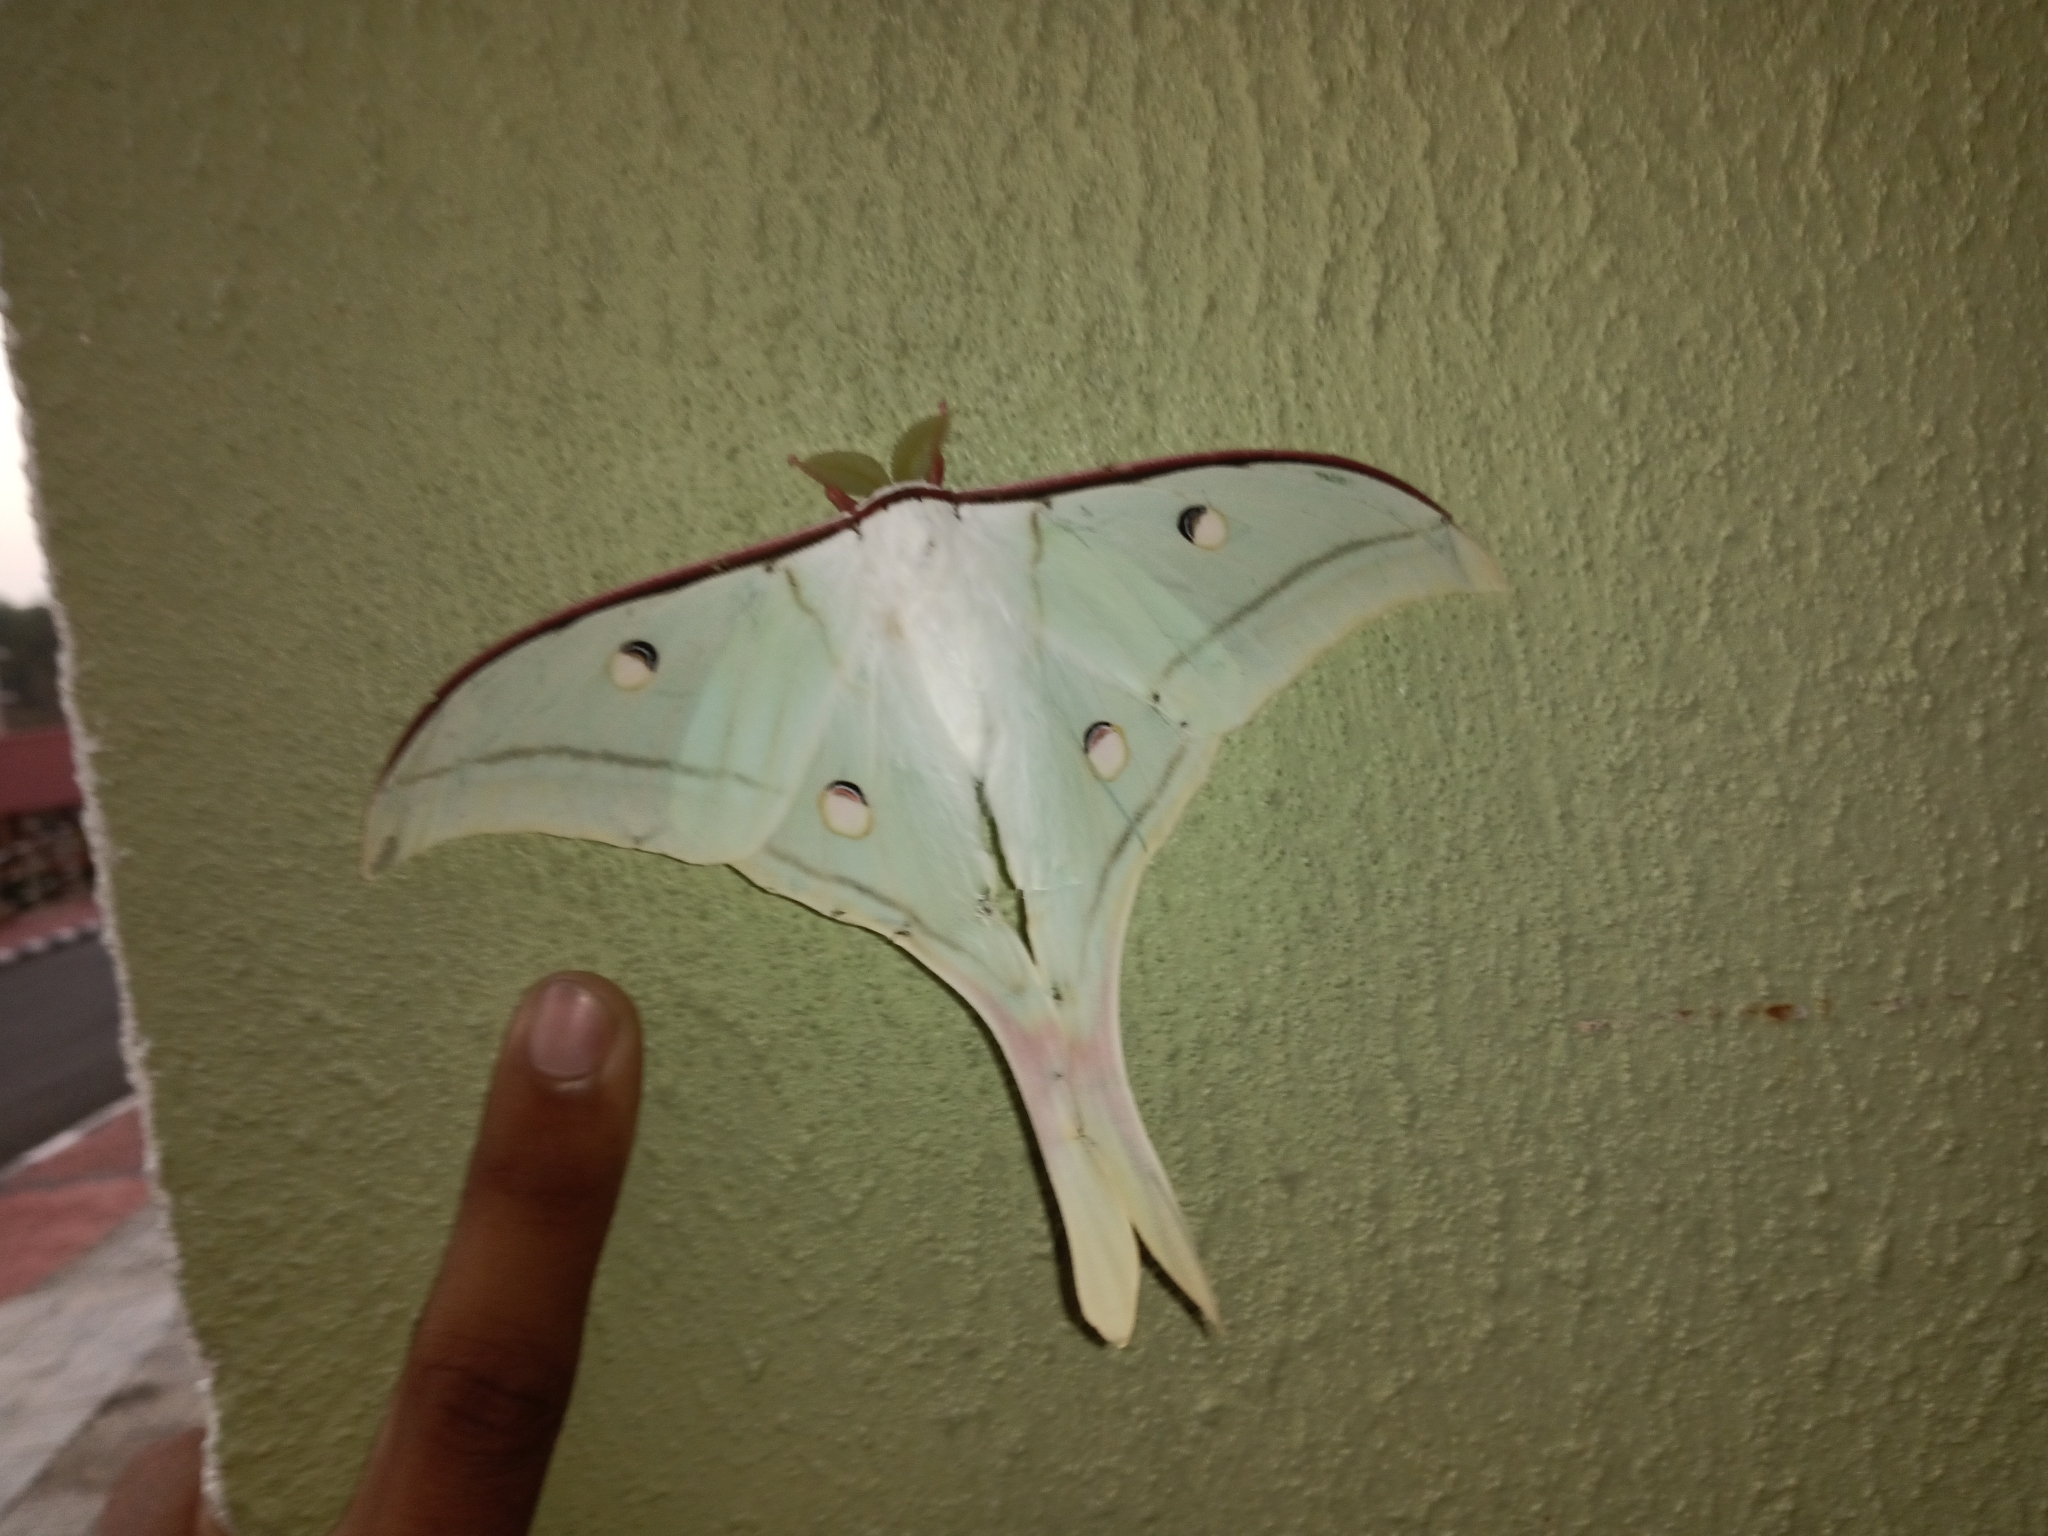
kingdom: Animalia
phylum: Arthropoda
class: Insecta
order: Lepidoptera
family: Saturniidae
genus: Actias
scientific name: Actias selene
